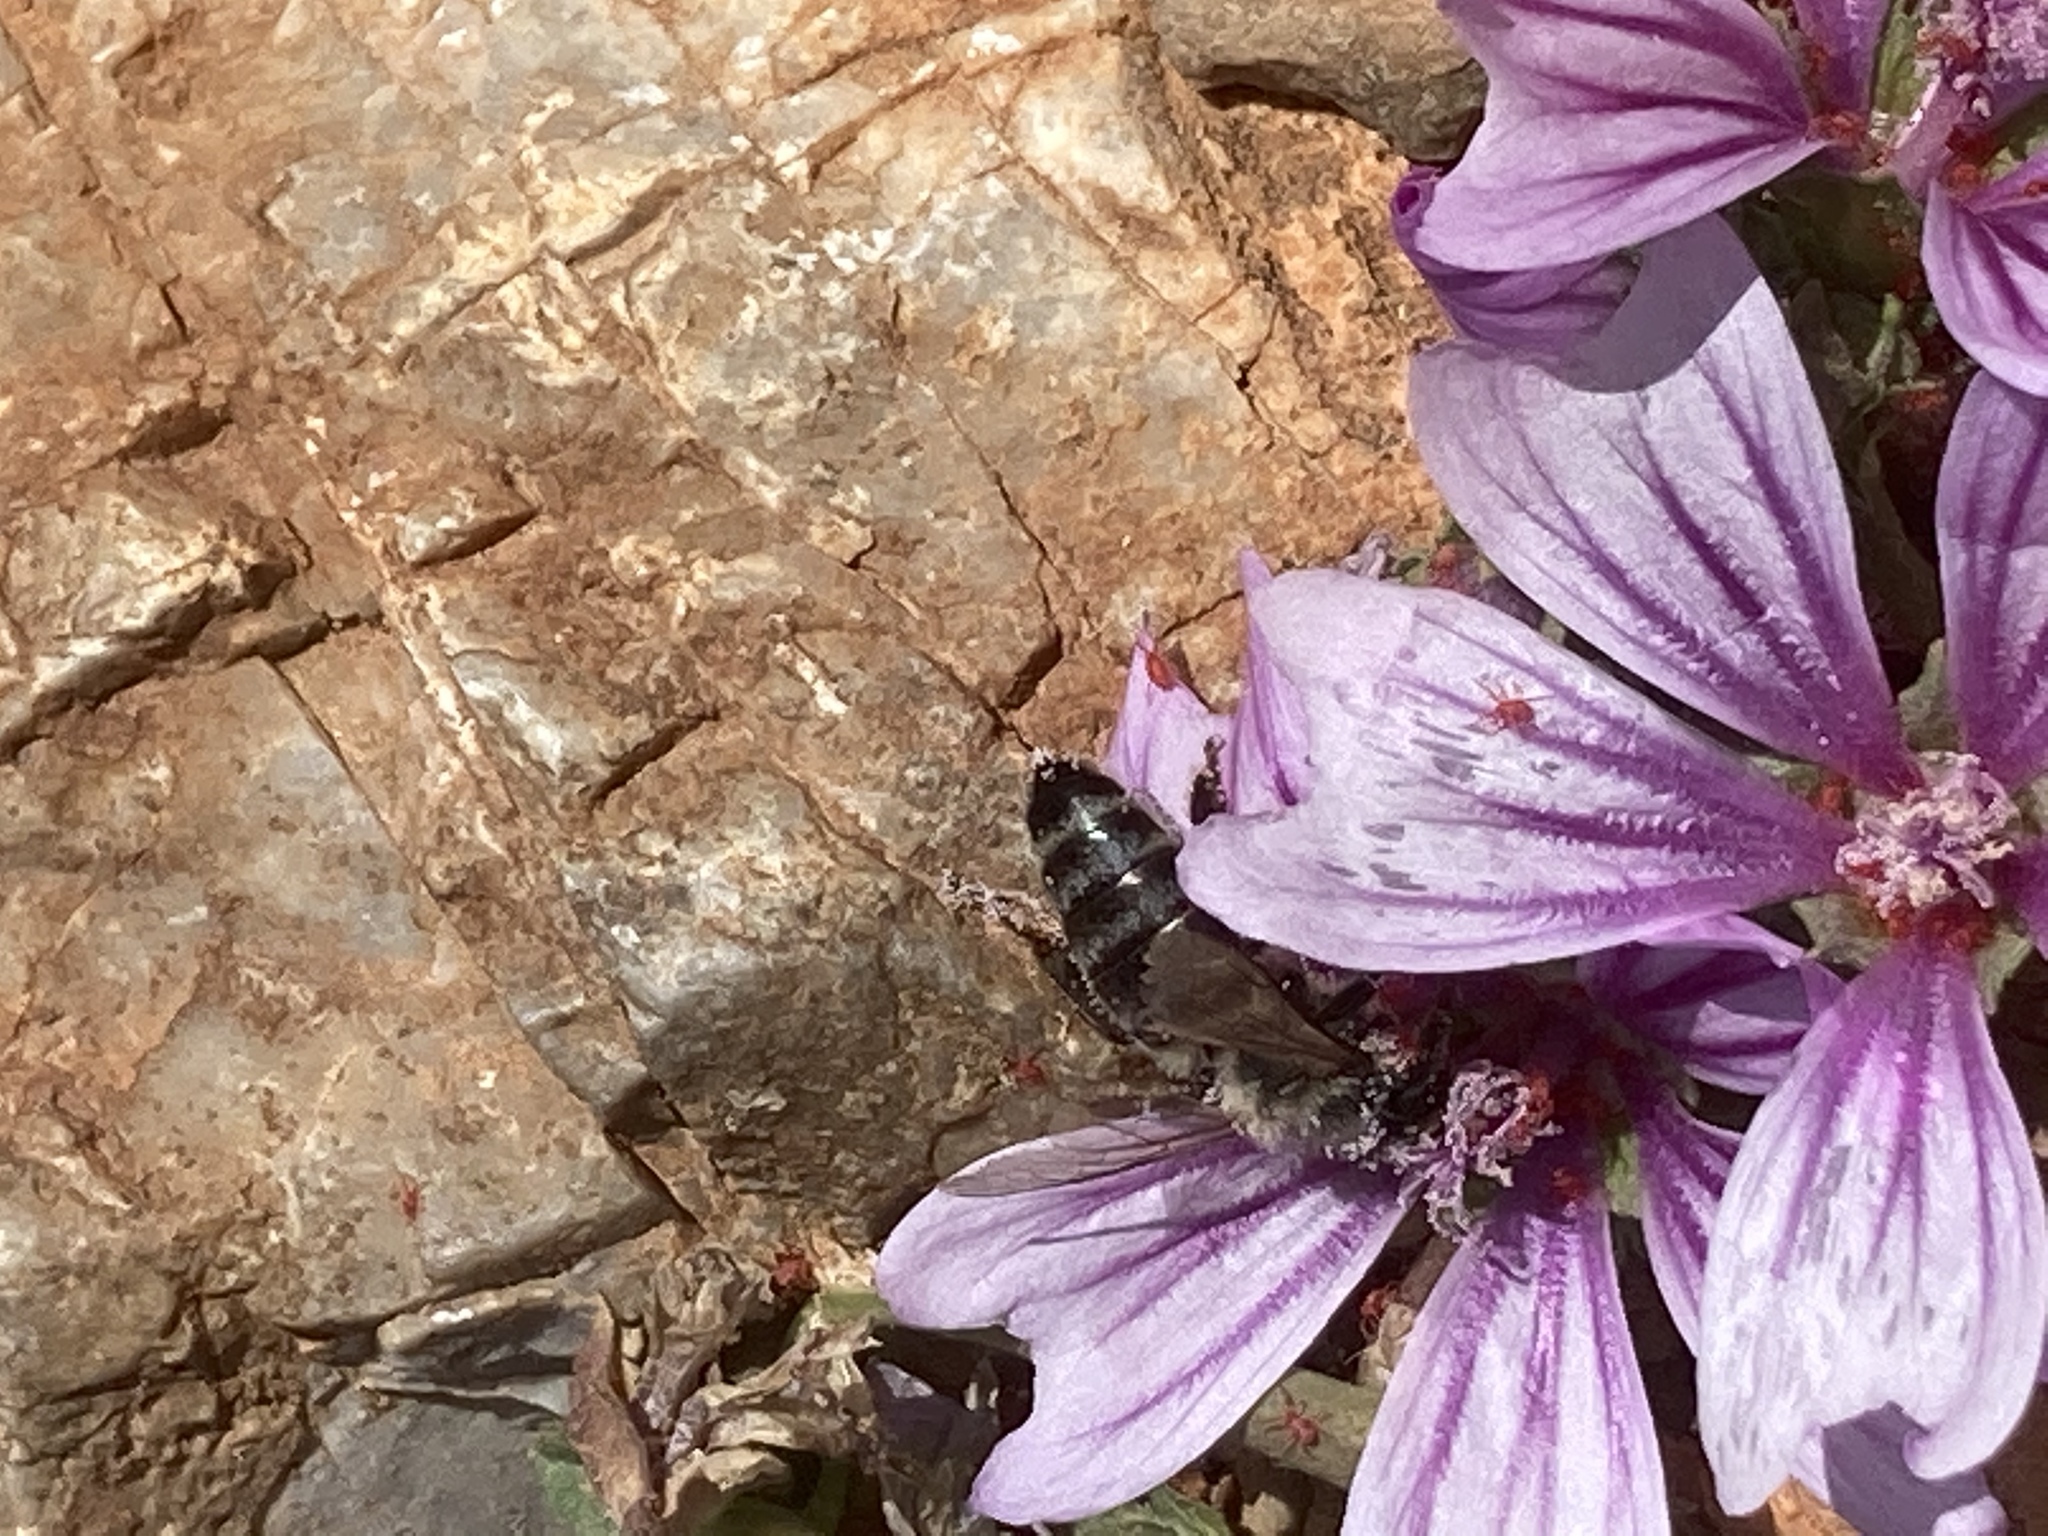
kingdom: Animalia
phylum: Arthropoda
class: Insecta
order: Hymenoptera
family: Apidae
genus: Apis
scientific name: Apis mellifera
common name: Honey bee
